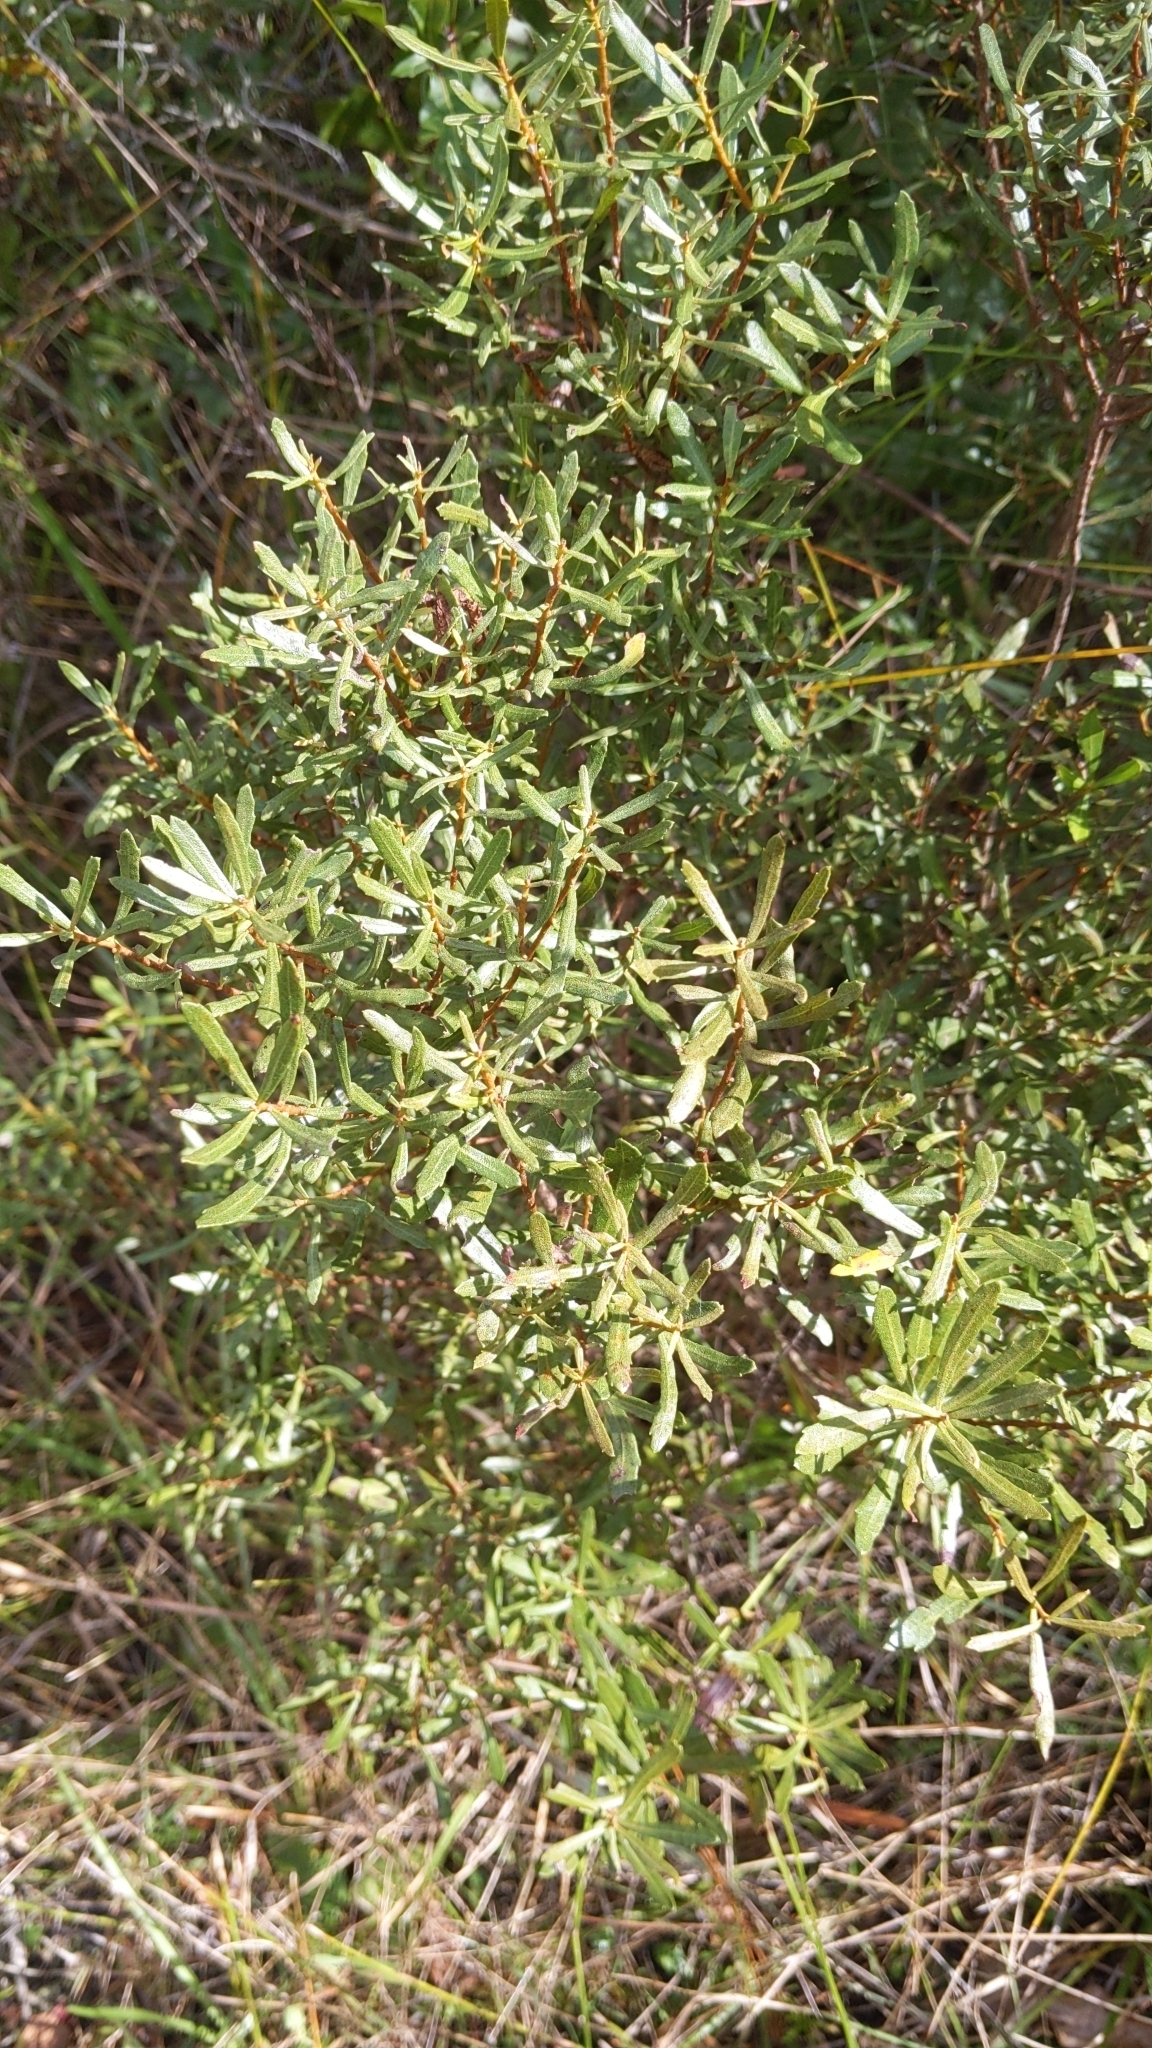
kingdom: Plantae
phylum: Tracheophyta
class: Magnoliopsida
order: Fagales
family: Myricaceae
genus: Morella
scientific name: Morella cerifera
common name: Wax myrtle
